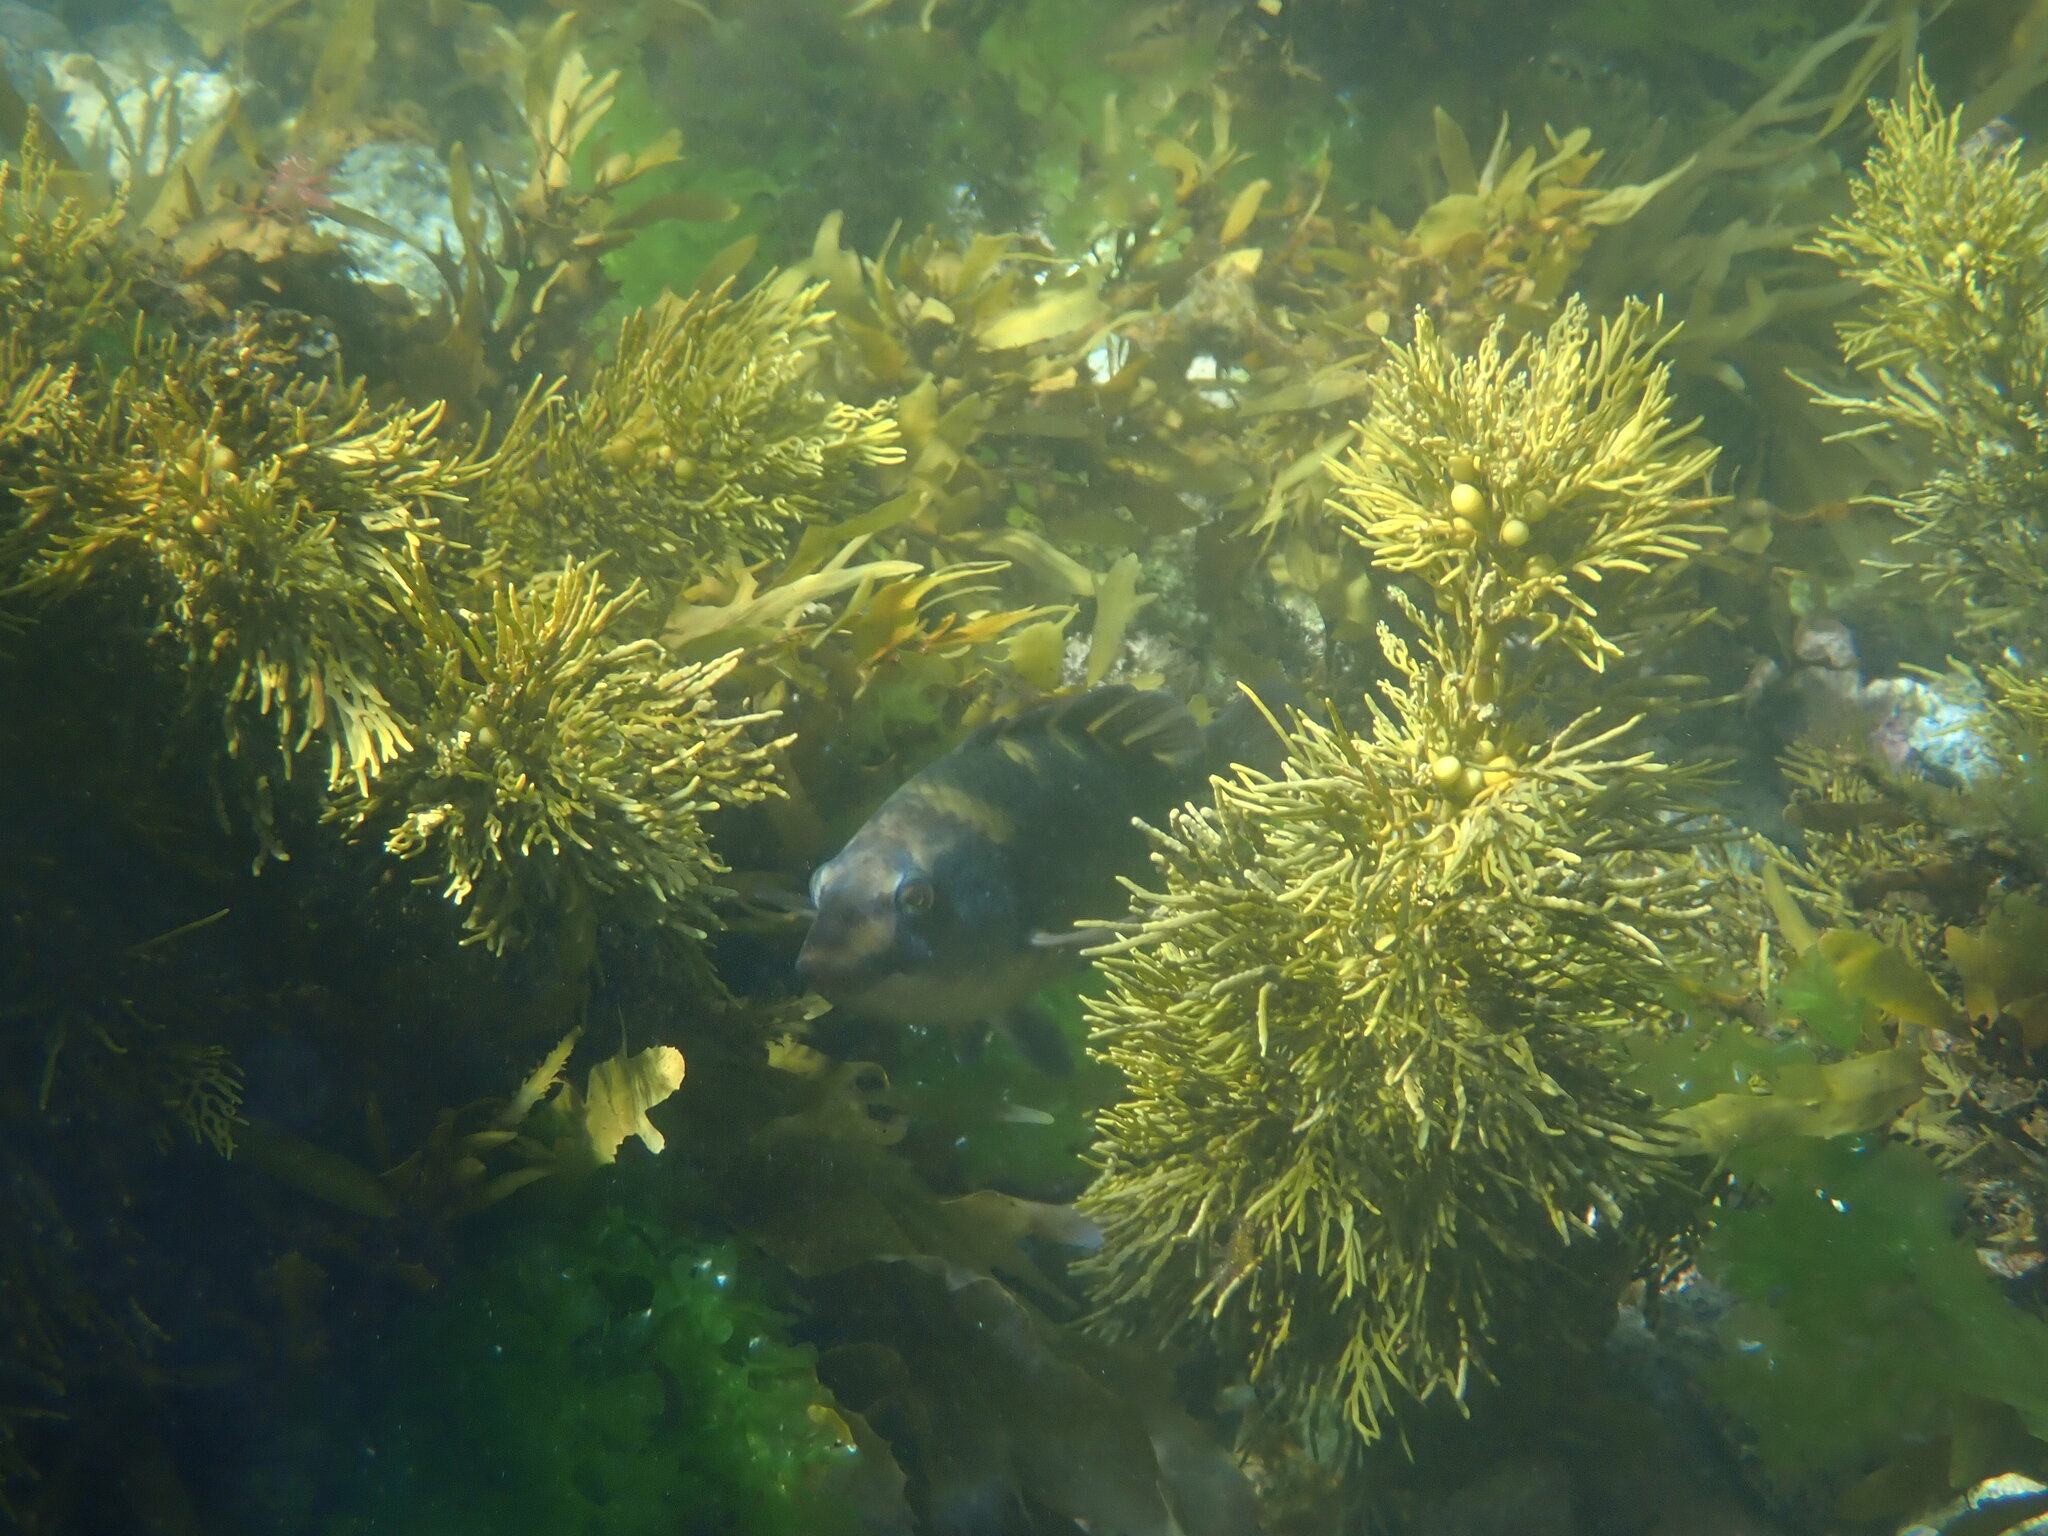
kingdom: Animalia
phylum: Chordata
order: Perciformes
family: Labridae
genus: Notolabrus
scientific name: Notolabrus fucicola
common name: Banded parrotfish
